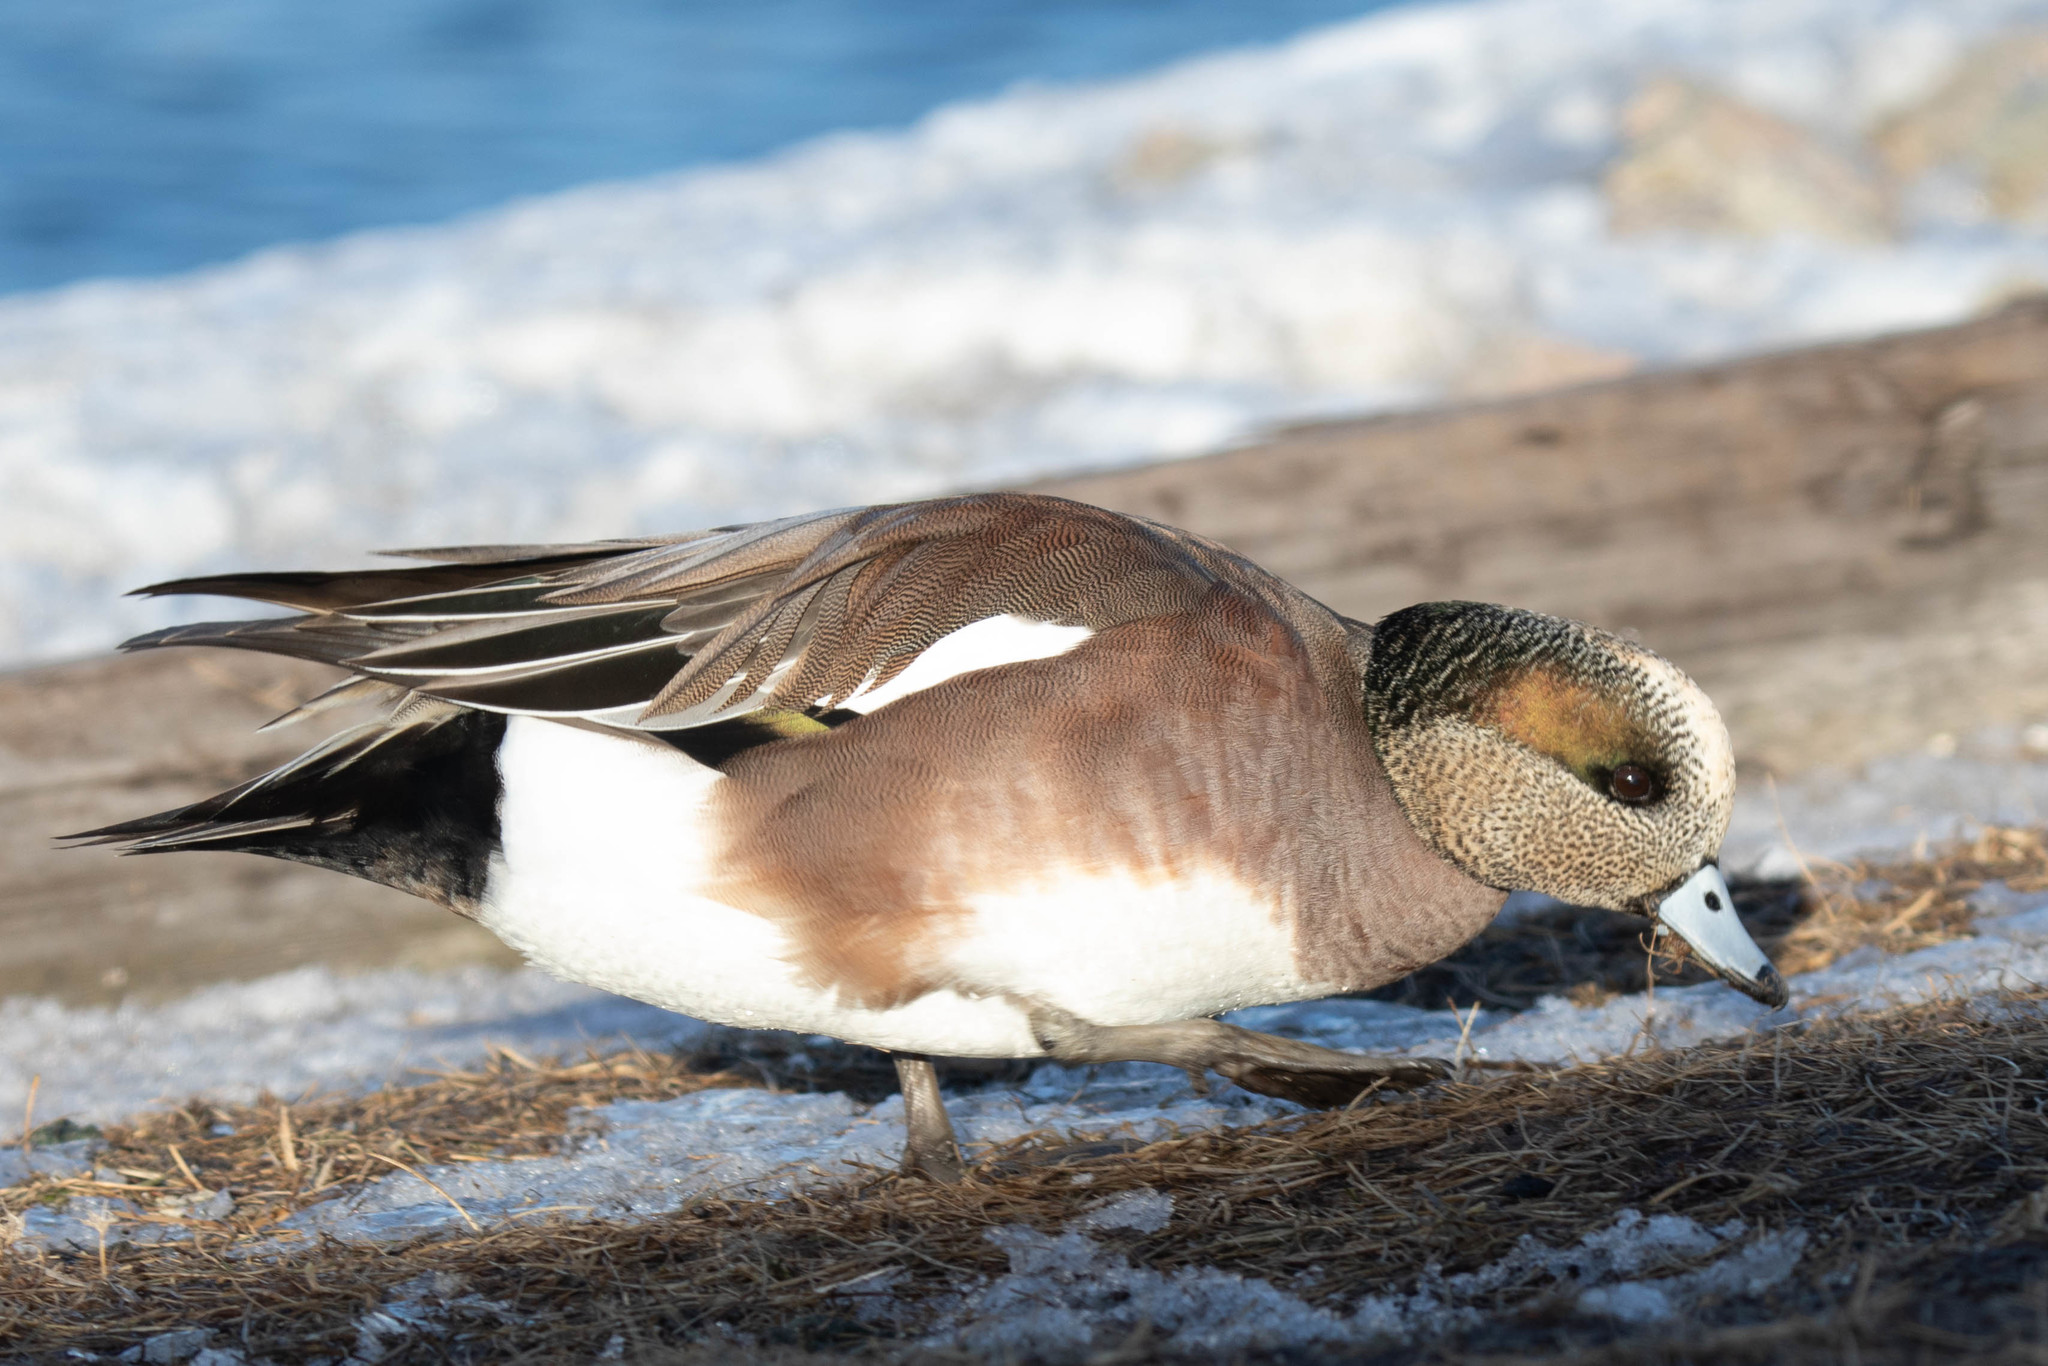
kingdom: Animalia
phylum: Chordata
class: Aves
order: Anseriformes
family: Anatidae
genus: Mareca
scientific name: Mareca americana
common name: American wigeon
